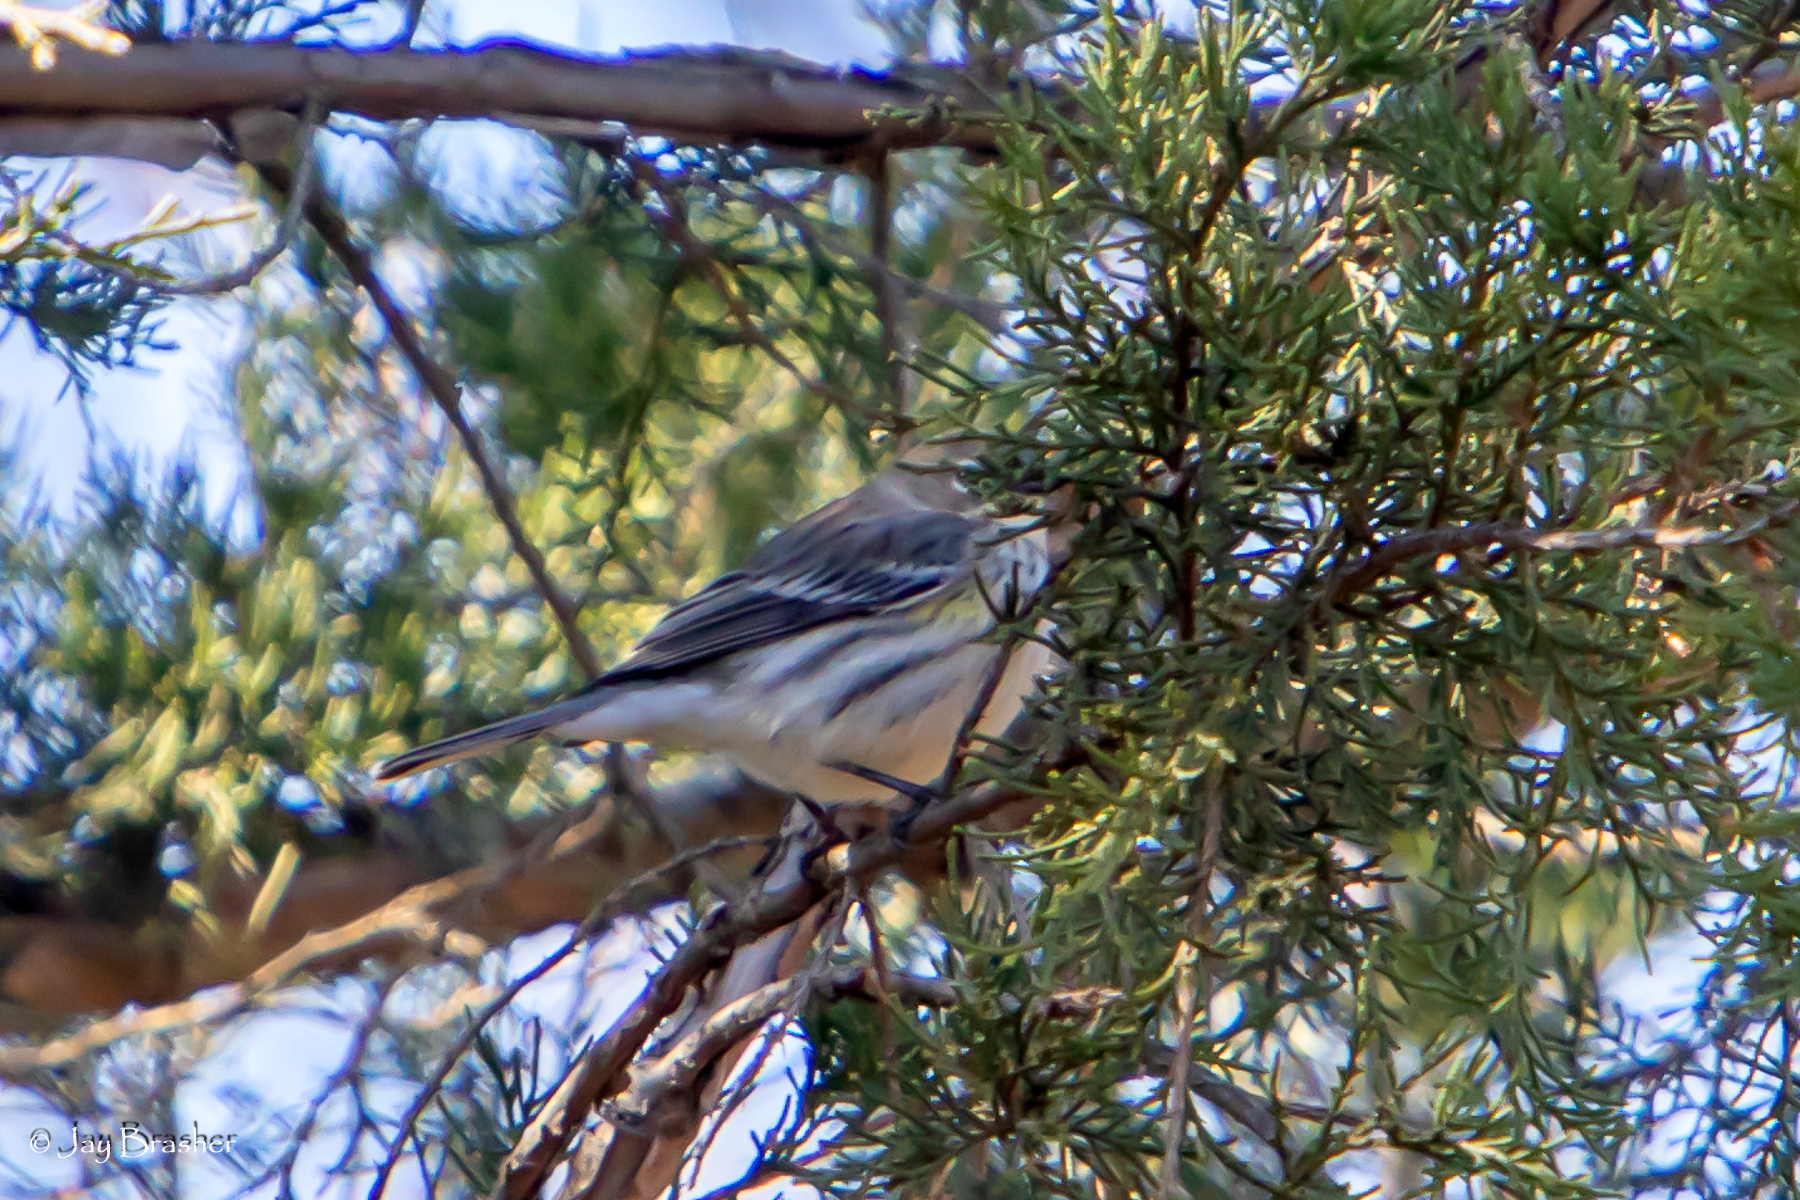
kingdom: Animalia
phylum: Chordata
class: Aves
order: Passeriformes
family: Parulidae
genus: Setophaga
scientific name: Setophaga coronata
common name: Myrtle warbler
